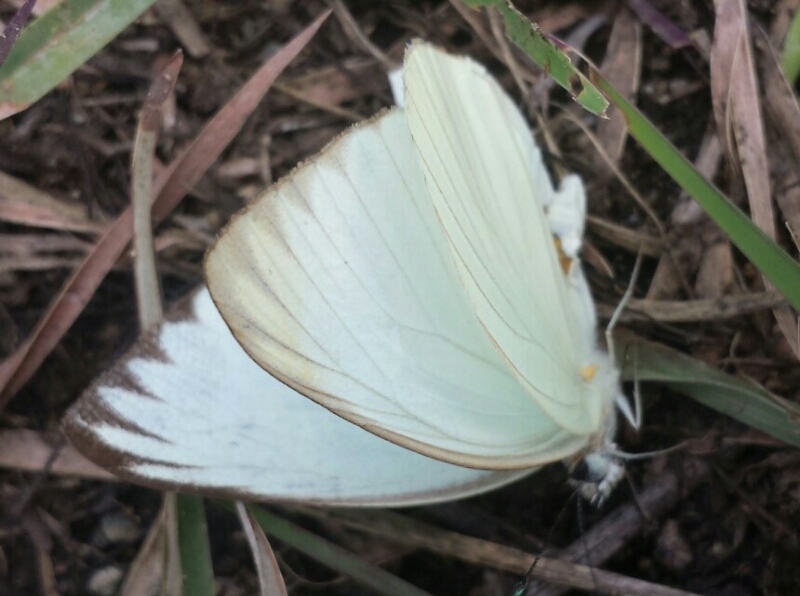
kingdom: Animalia
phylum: Arthropoda
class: Insecta
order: Lepidoptera
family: Pieridae
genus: Ascia
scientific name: Ascia monuste
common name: Great southern white
